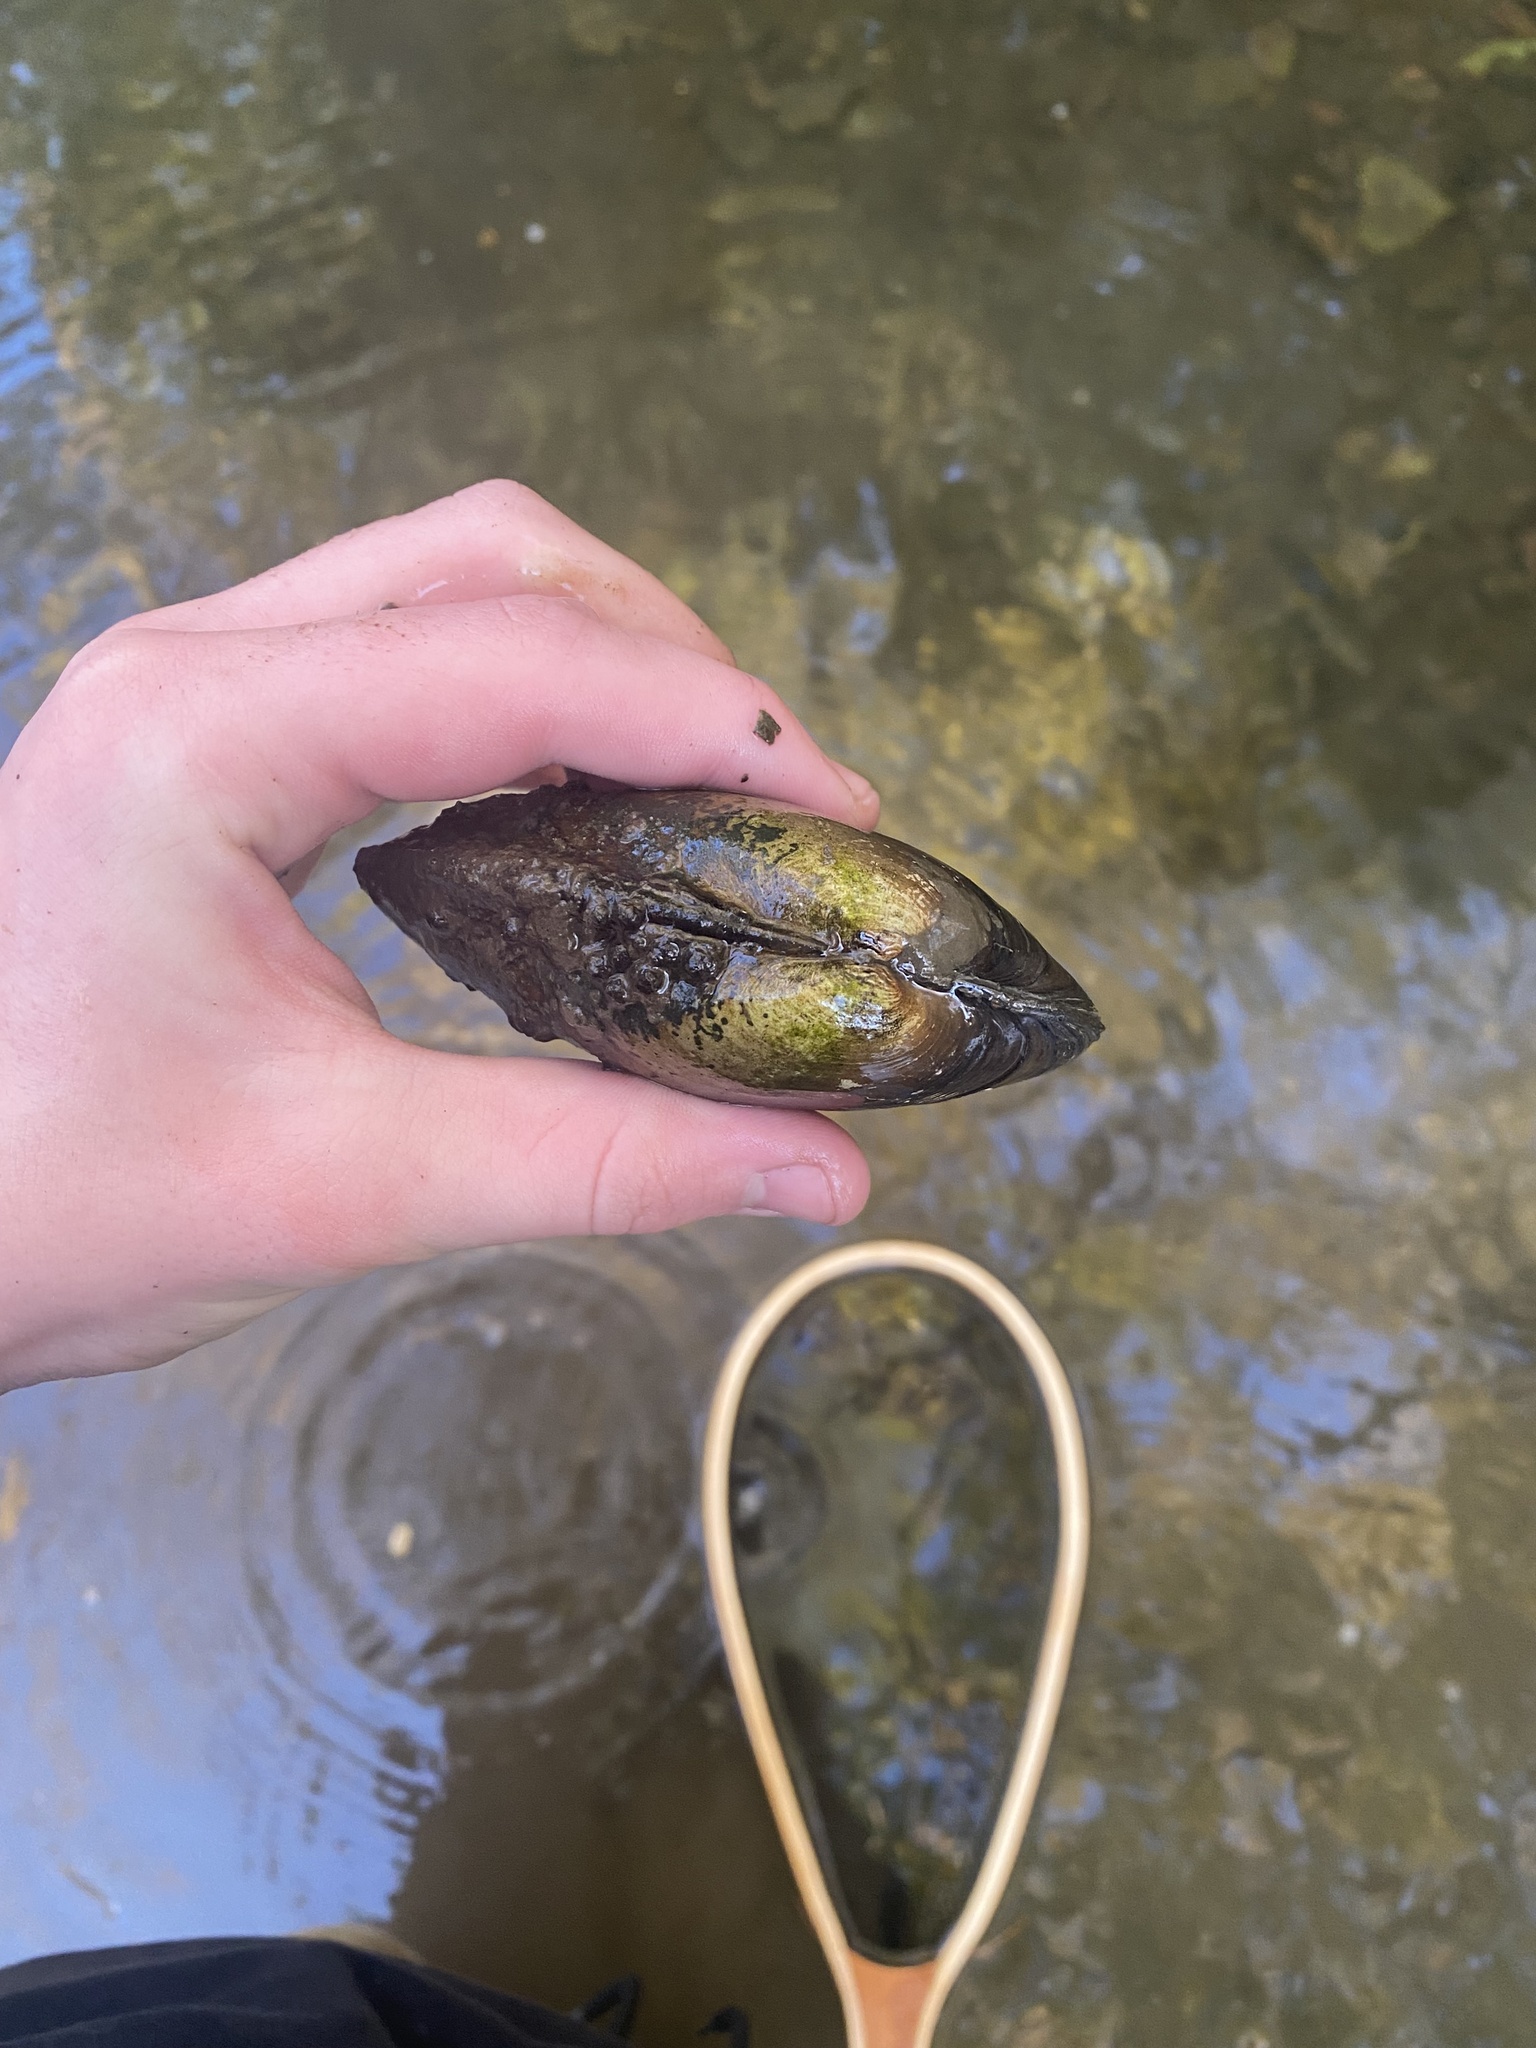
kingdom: Animalia
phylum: Mollusca
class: Bivalvia
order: Unionida
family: Unionidae
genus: Lampsilis
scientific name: Lampsilis siliquoidea
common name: Fatmucket
